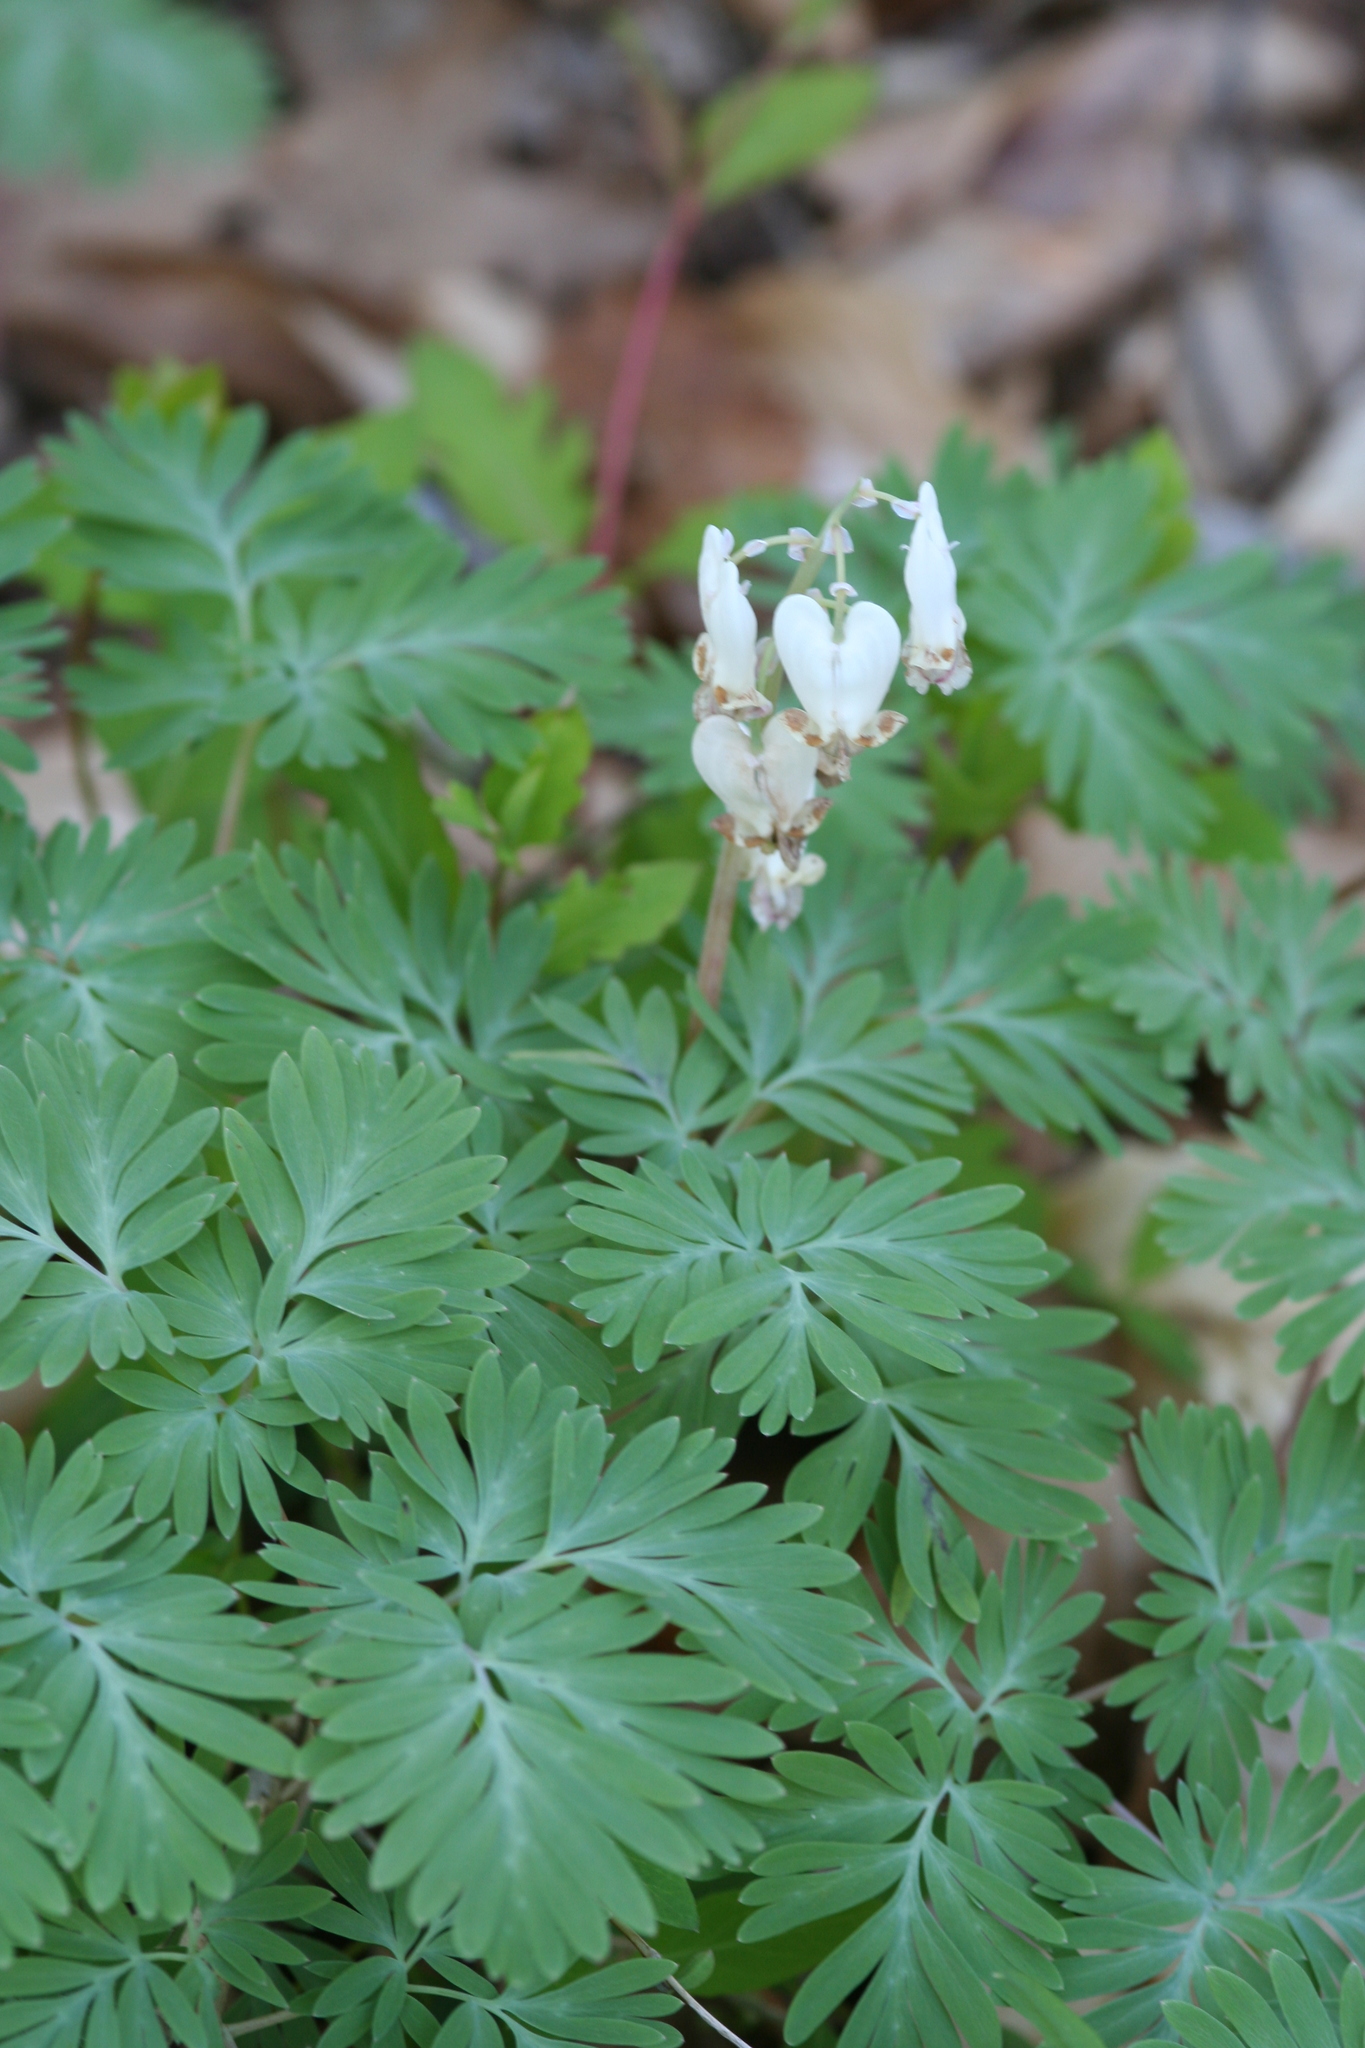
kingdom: Plantae
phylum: Tracheophyta
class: Magnoliopsida
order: Ranunculales
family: Papaveraceae
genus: Dicentra
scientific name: Dicentra canadensis
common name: Squirrel-corn
